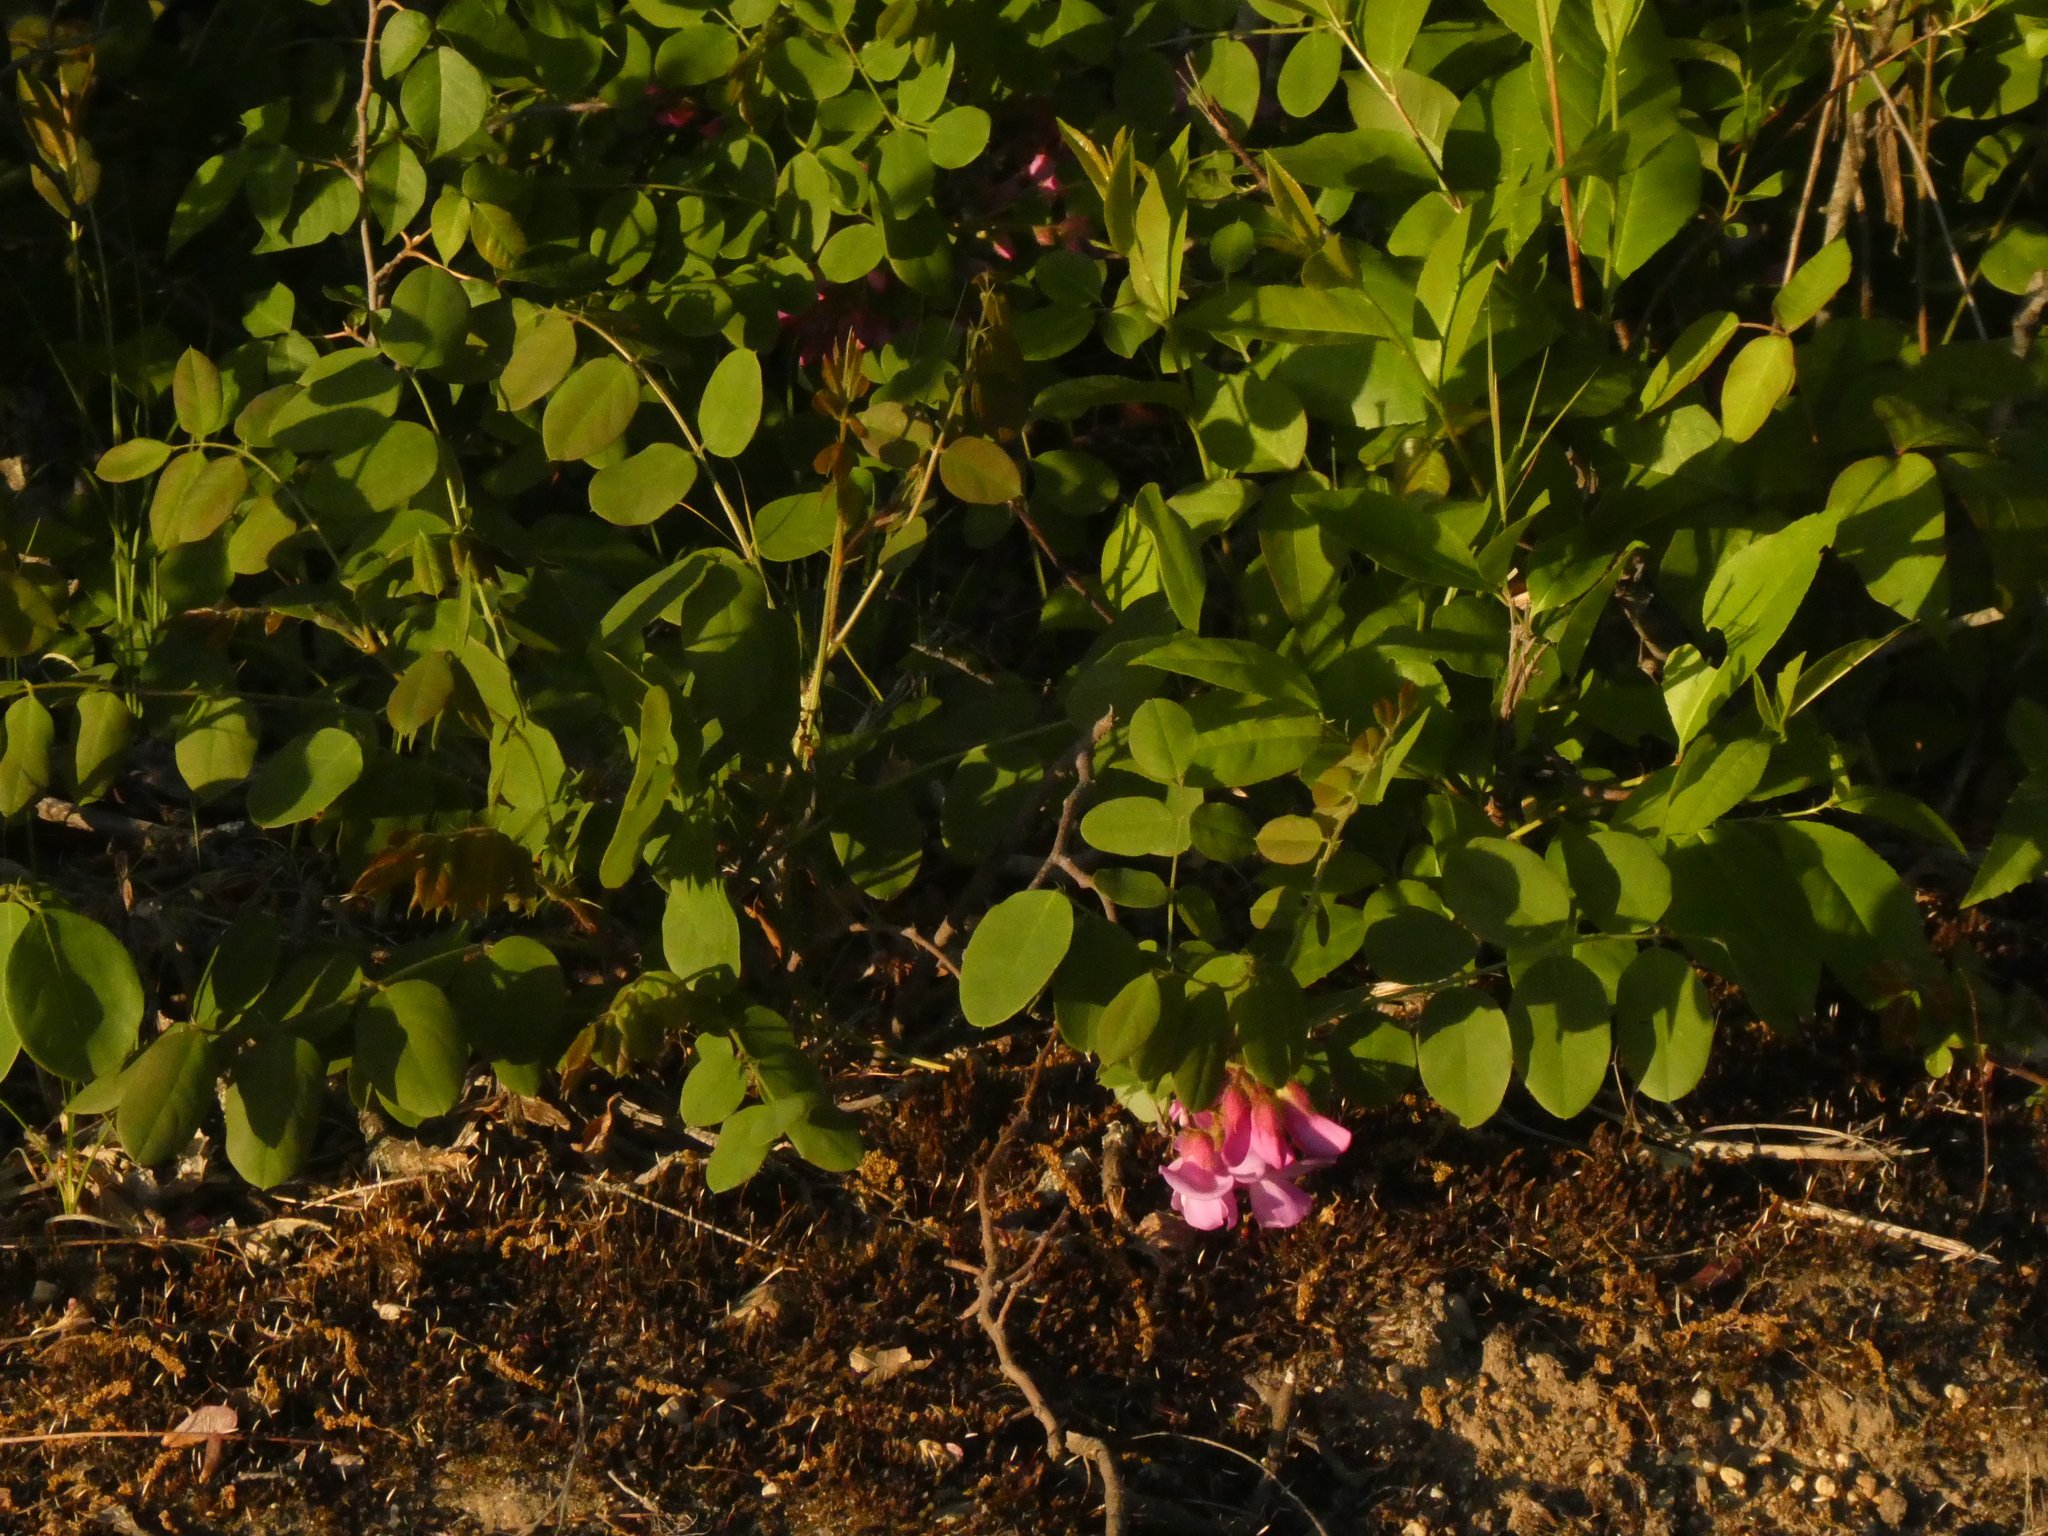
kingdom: Plantae
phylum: Tracheophyta
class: Magnoliopsida
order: Fabales
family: Fabaceae
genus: Robinia
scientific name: Robinia hispida
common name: Bristly locust
